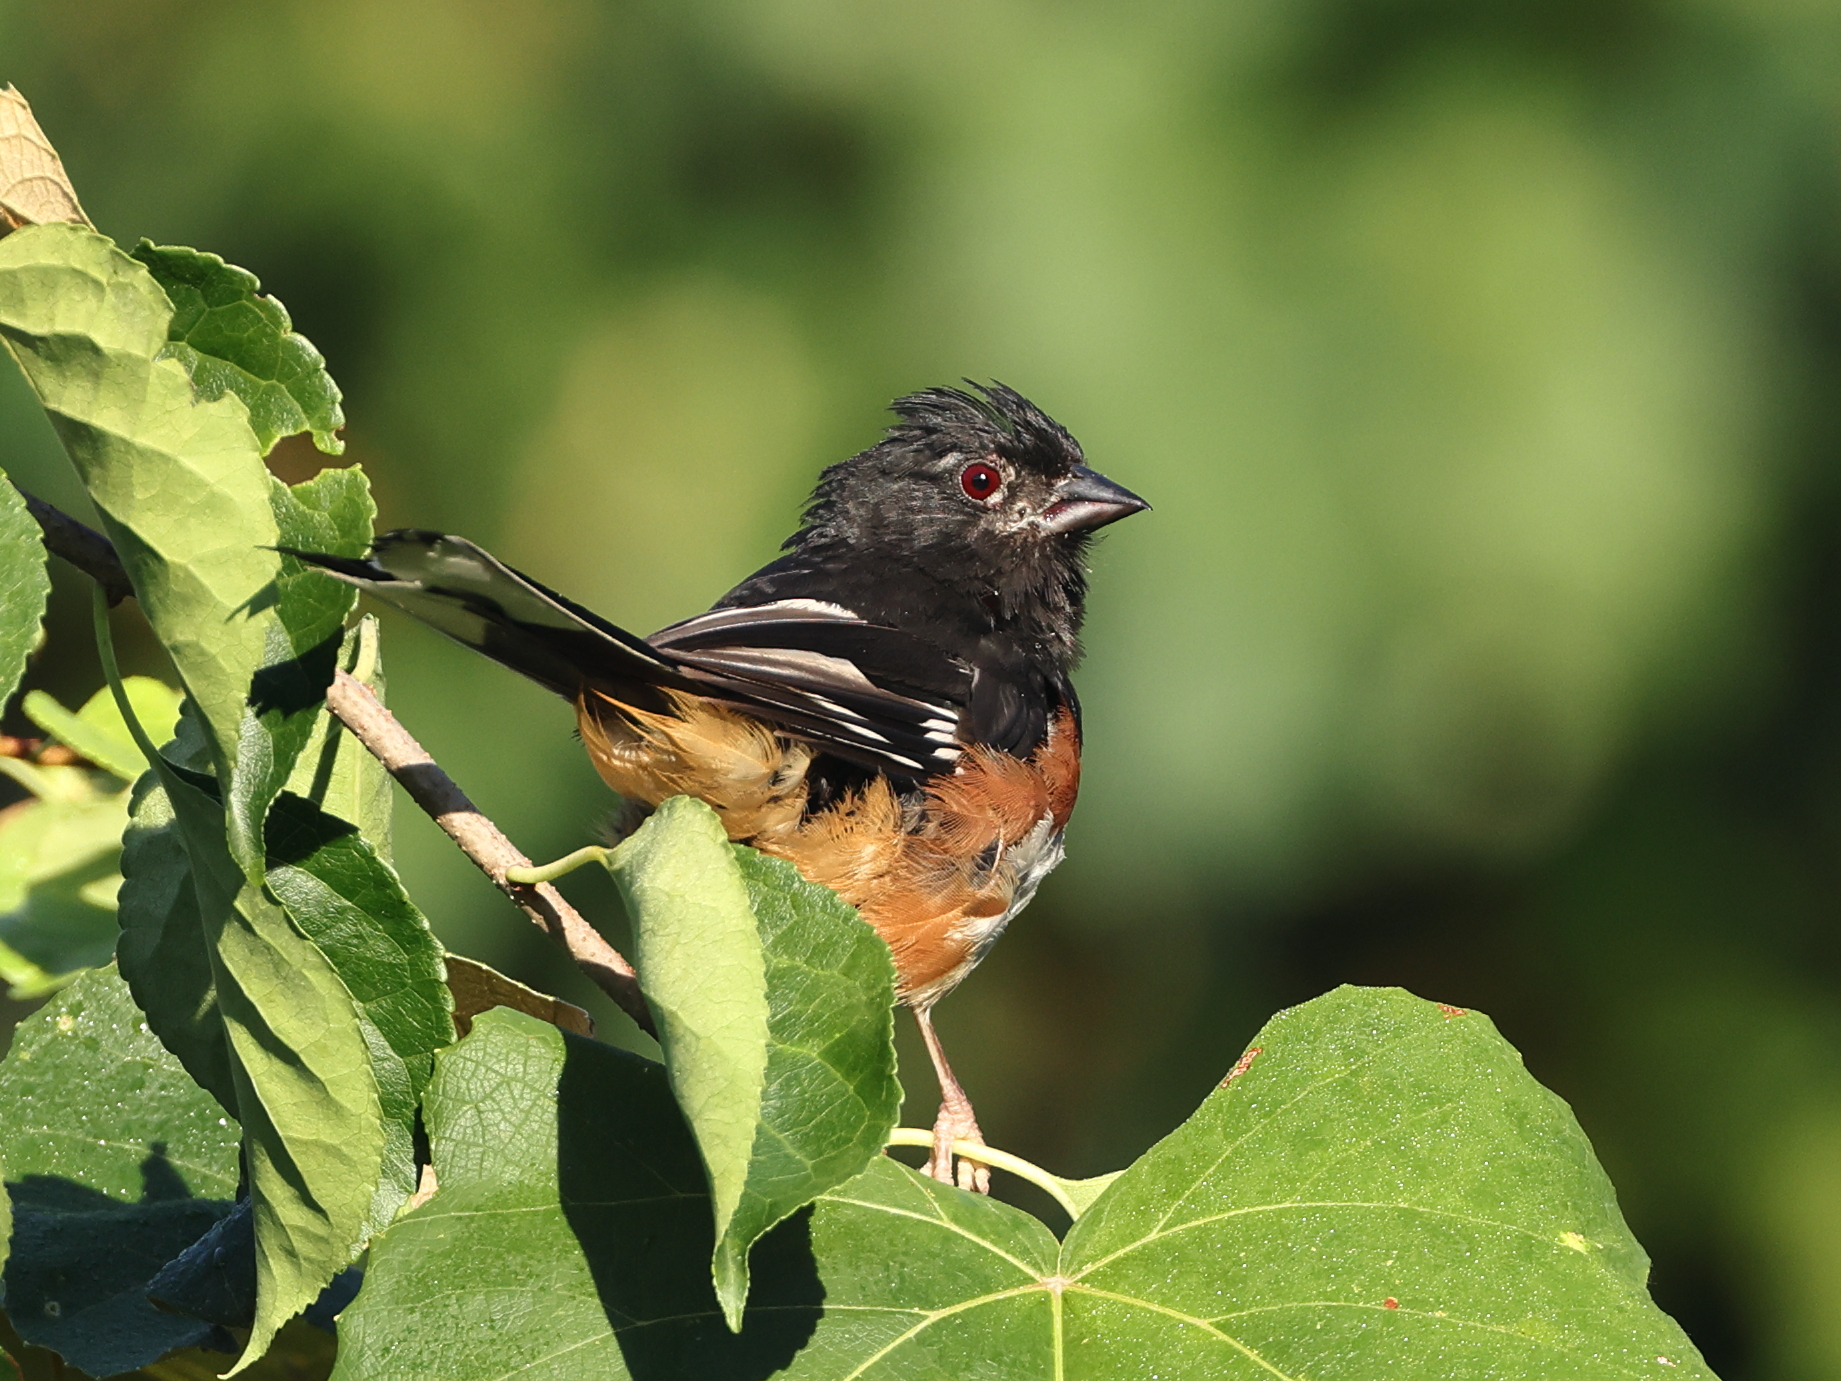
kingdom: Animalia
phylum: Chordata
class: Aves
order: Passeriformes
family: Passerellidae
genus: Pipilo
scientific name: Pipilo erythrophthalmus
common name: Eastern towhee
